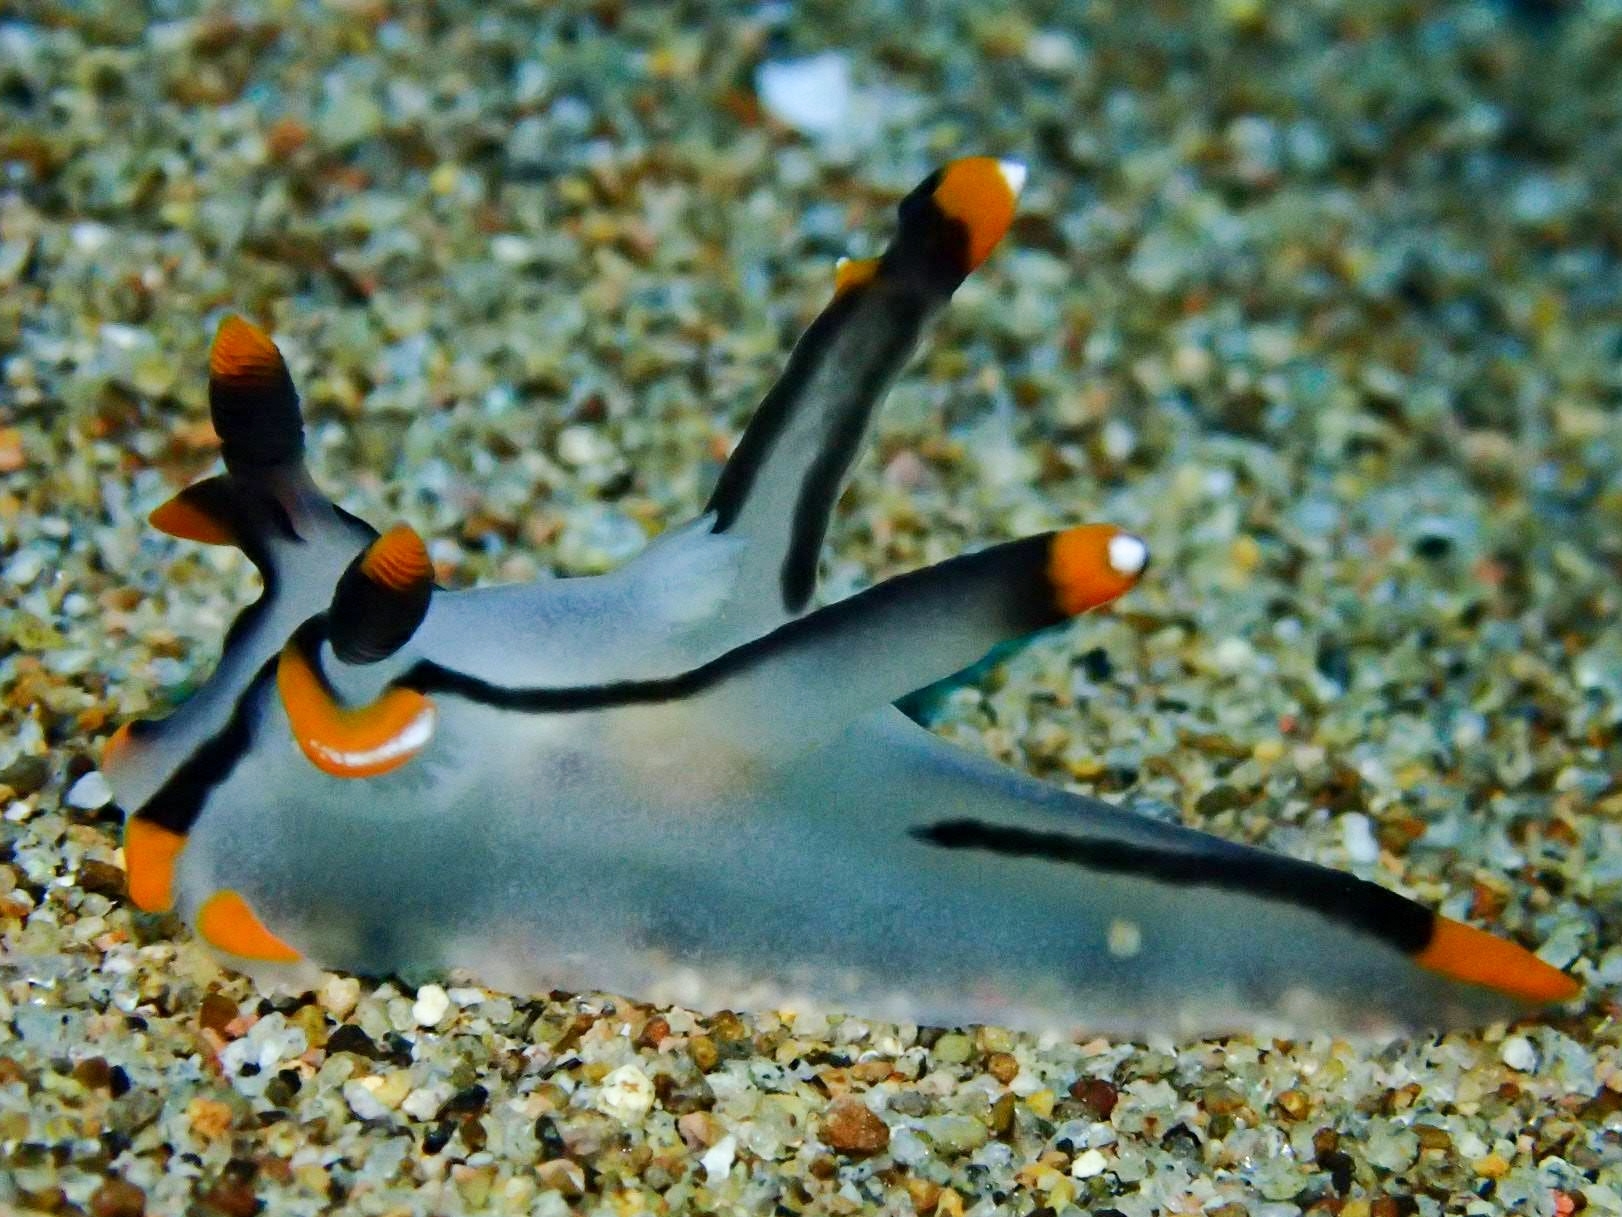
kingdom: Animalia
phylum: Mollusca
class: Gastropoda
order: Nudibranchia
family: Polyceridae
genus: Thecacera
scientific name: Thecacera picta
